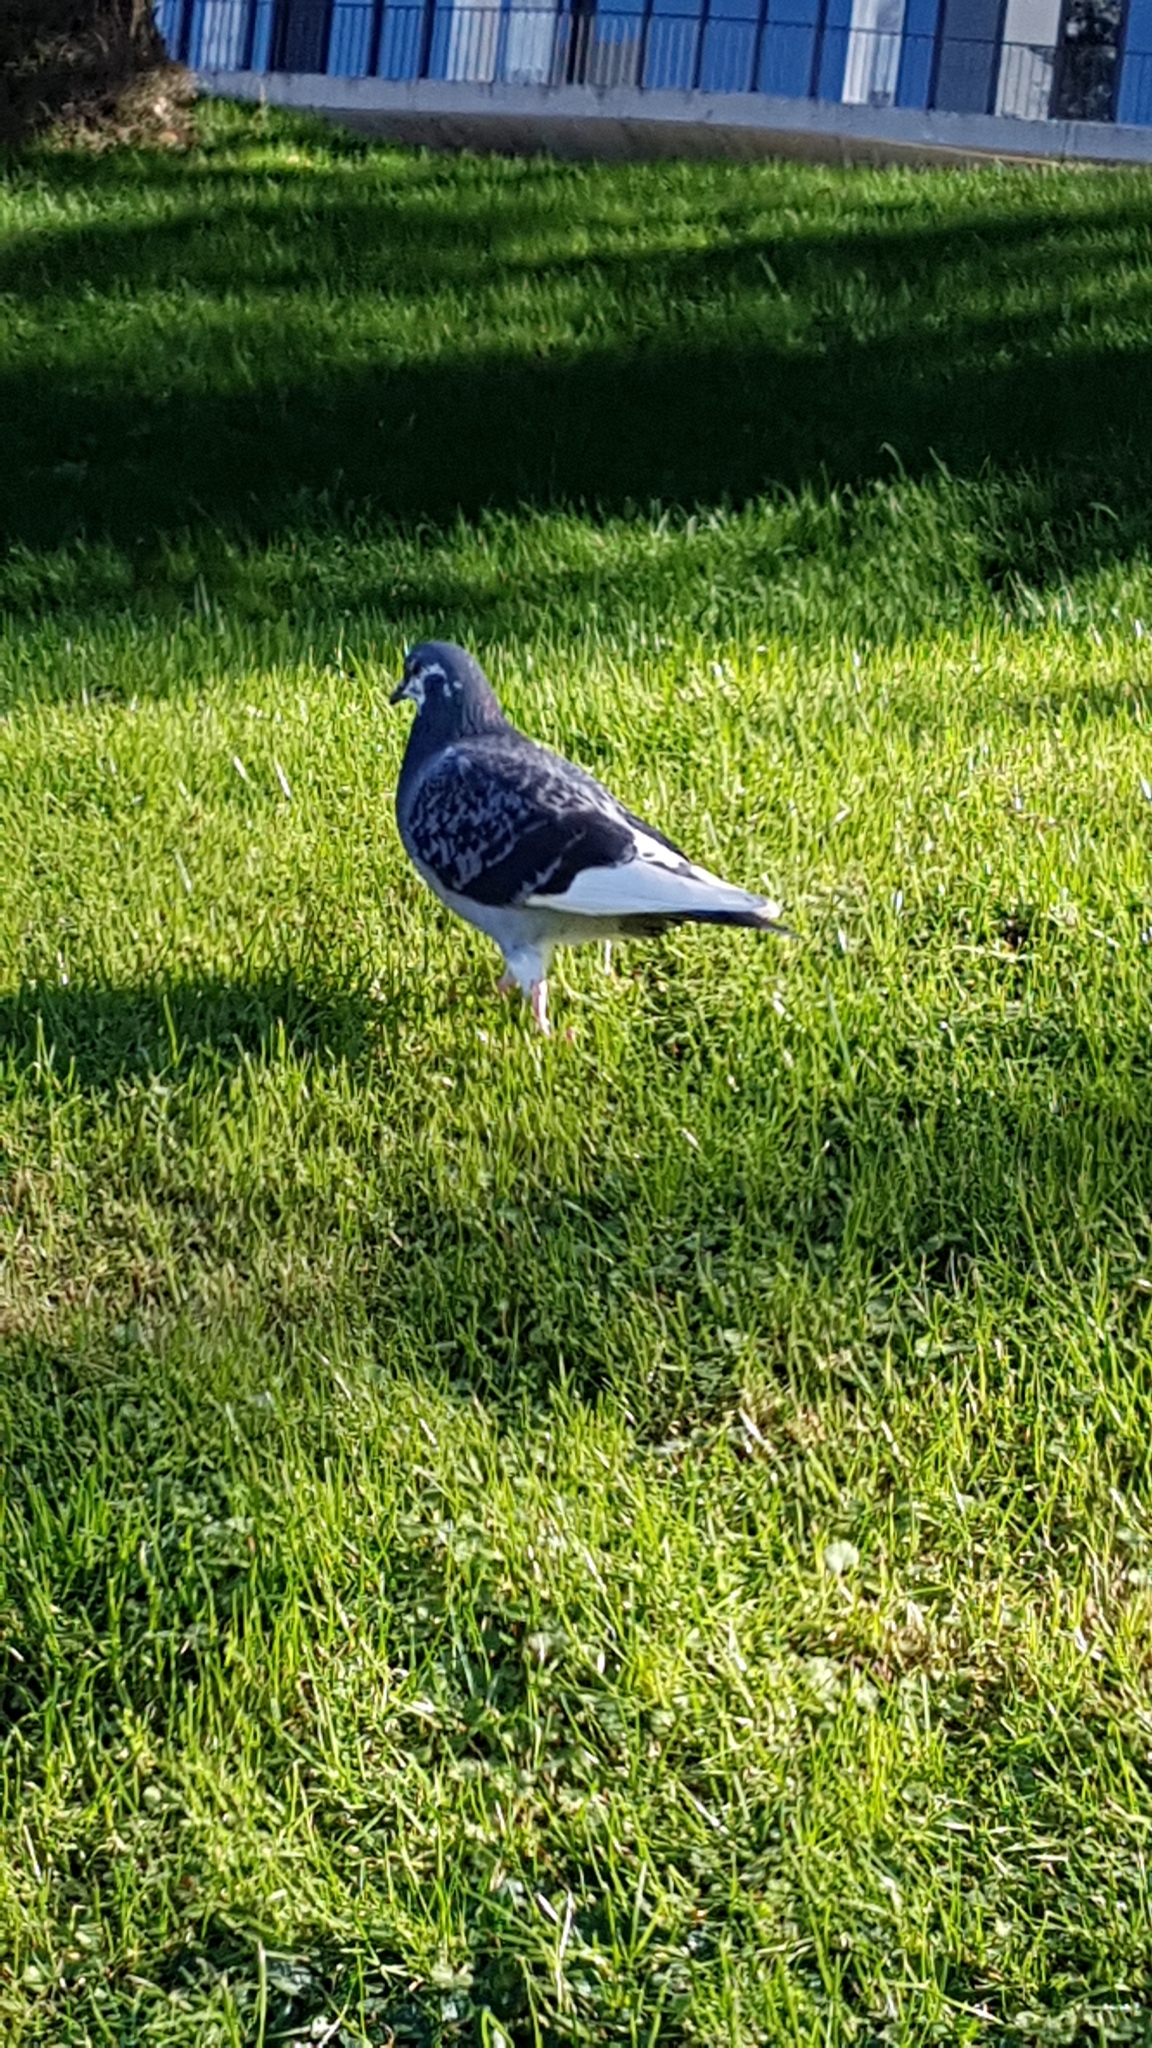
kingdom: Animalia
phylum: Chordata
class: Aves
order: Columbiformes
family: Columbidae
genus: Columba
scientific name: Columba livia
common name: Rock pigeon
